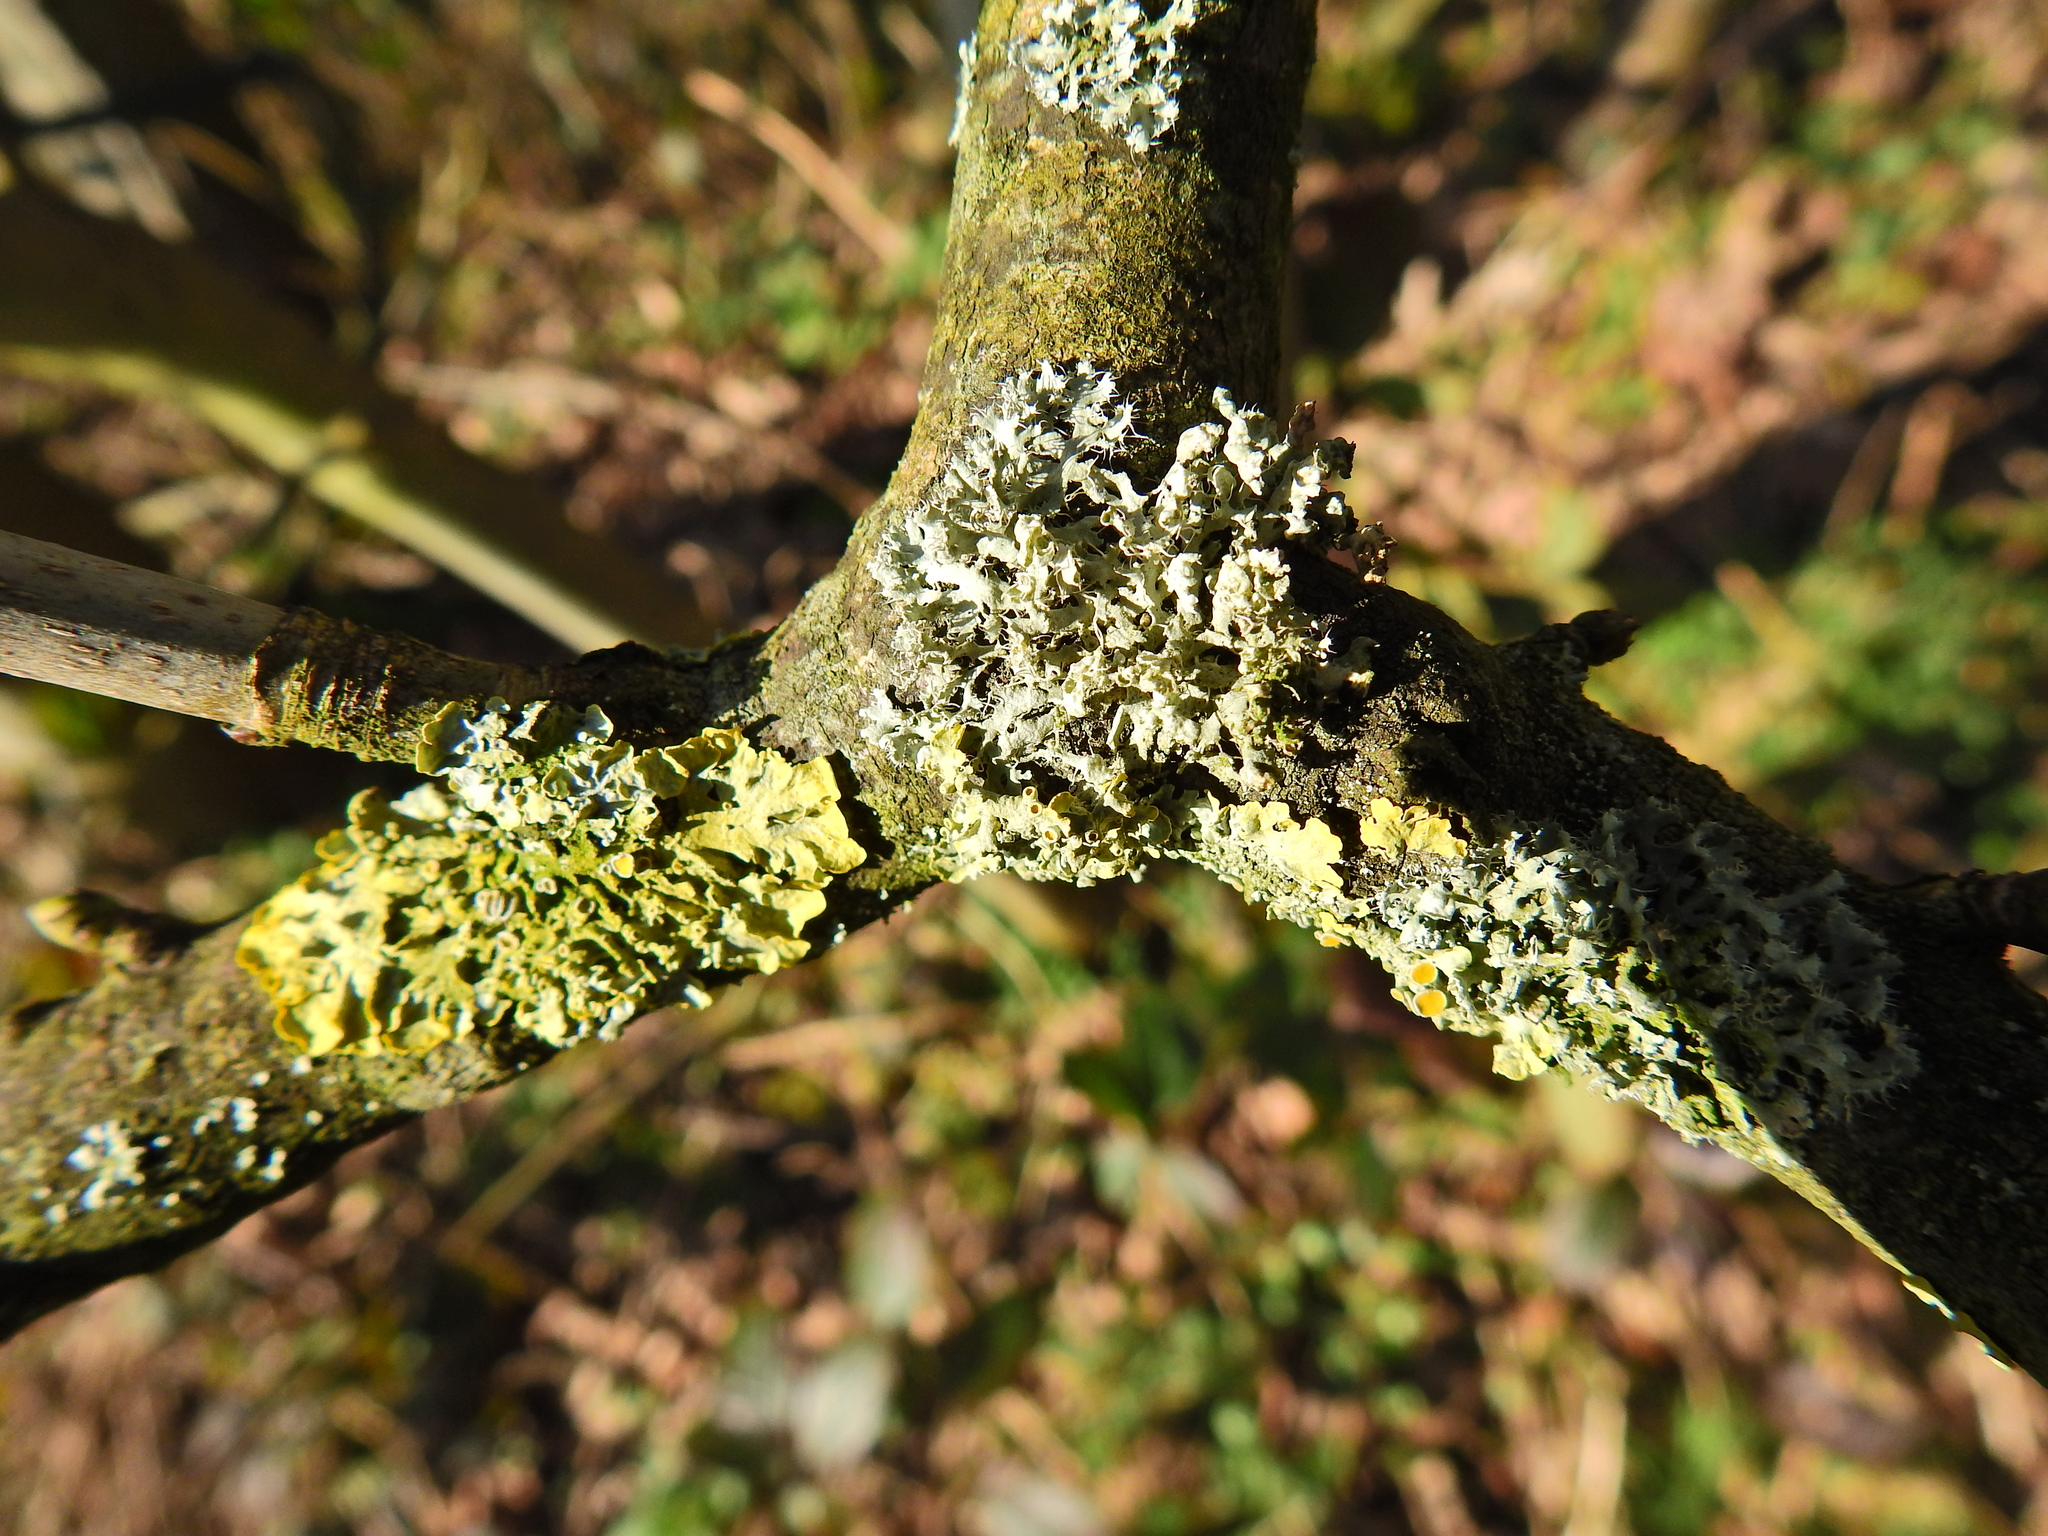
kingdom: Fungi
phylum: Ascomycota
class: Lecanoromycetes
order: Caliciales
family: Physciaceae
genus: Physcia
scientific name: Physcia adscendens
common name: Hooded rosette lichen
